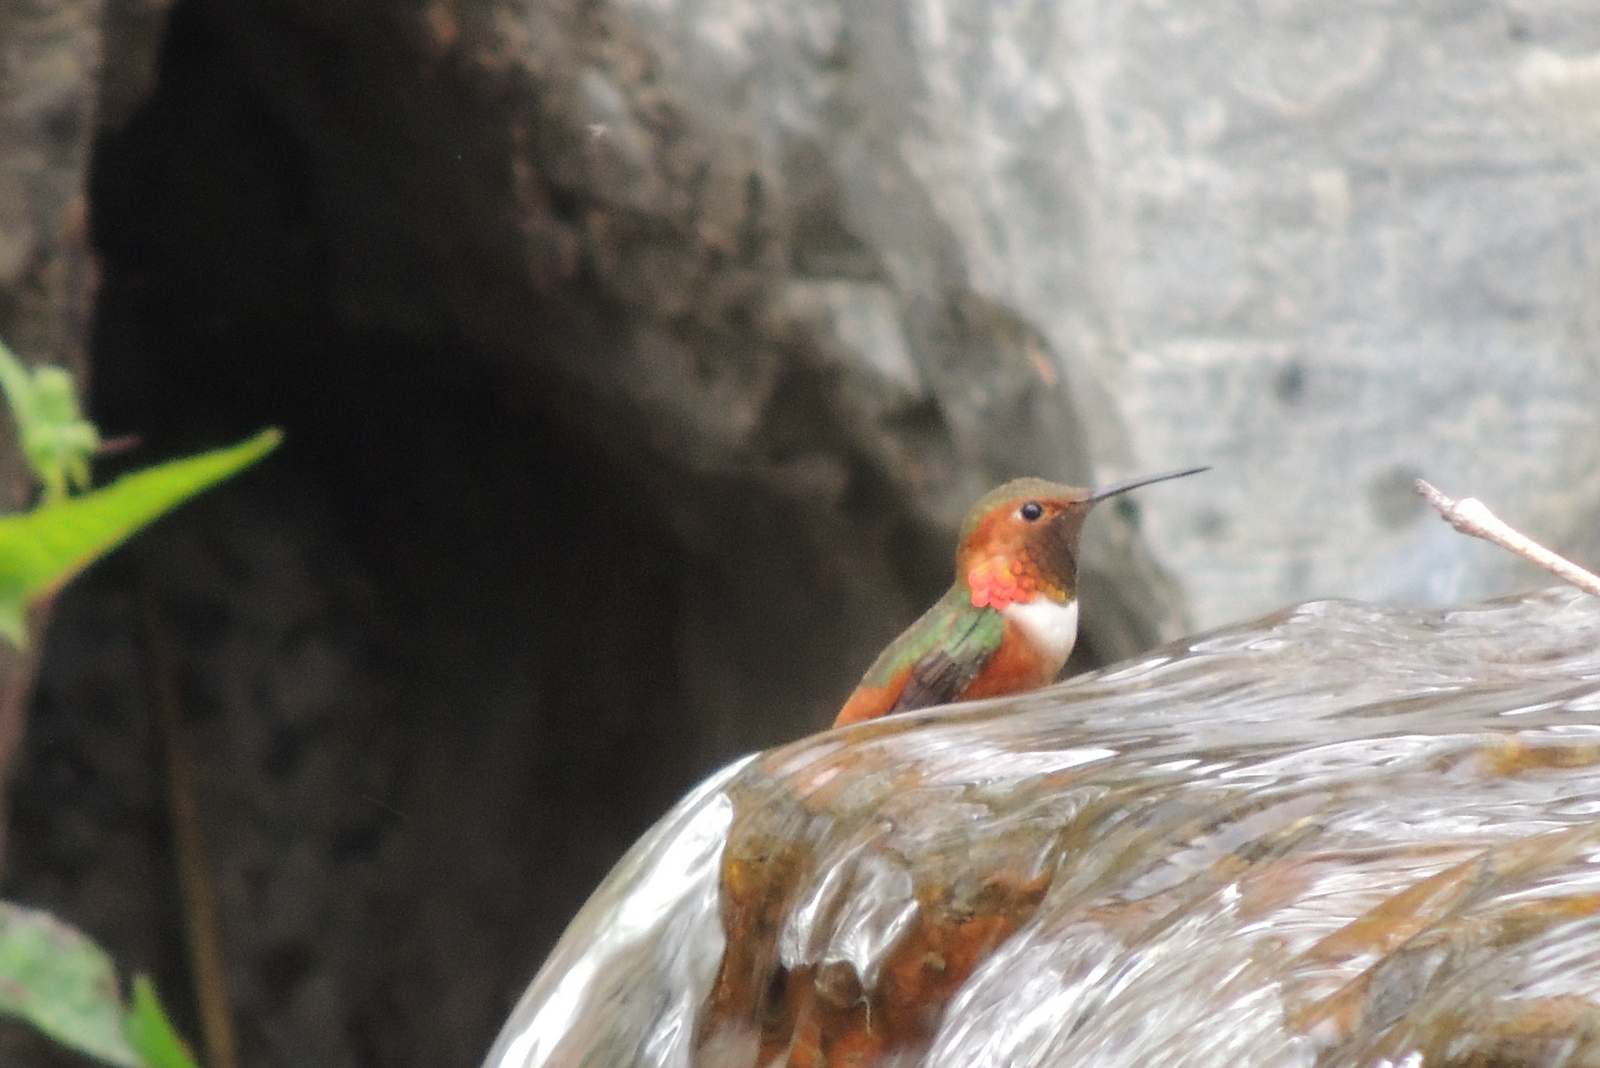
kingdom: Animalia
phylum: Chordata
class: Aves
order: Apodiformes
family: Trochilidae
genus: Selasphorus
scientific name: Selasphorus sasin
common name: Allen's hummingbird
